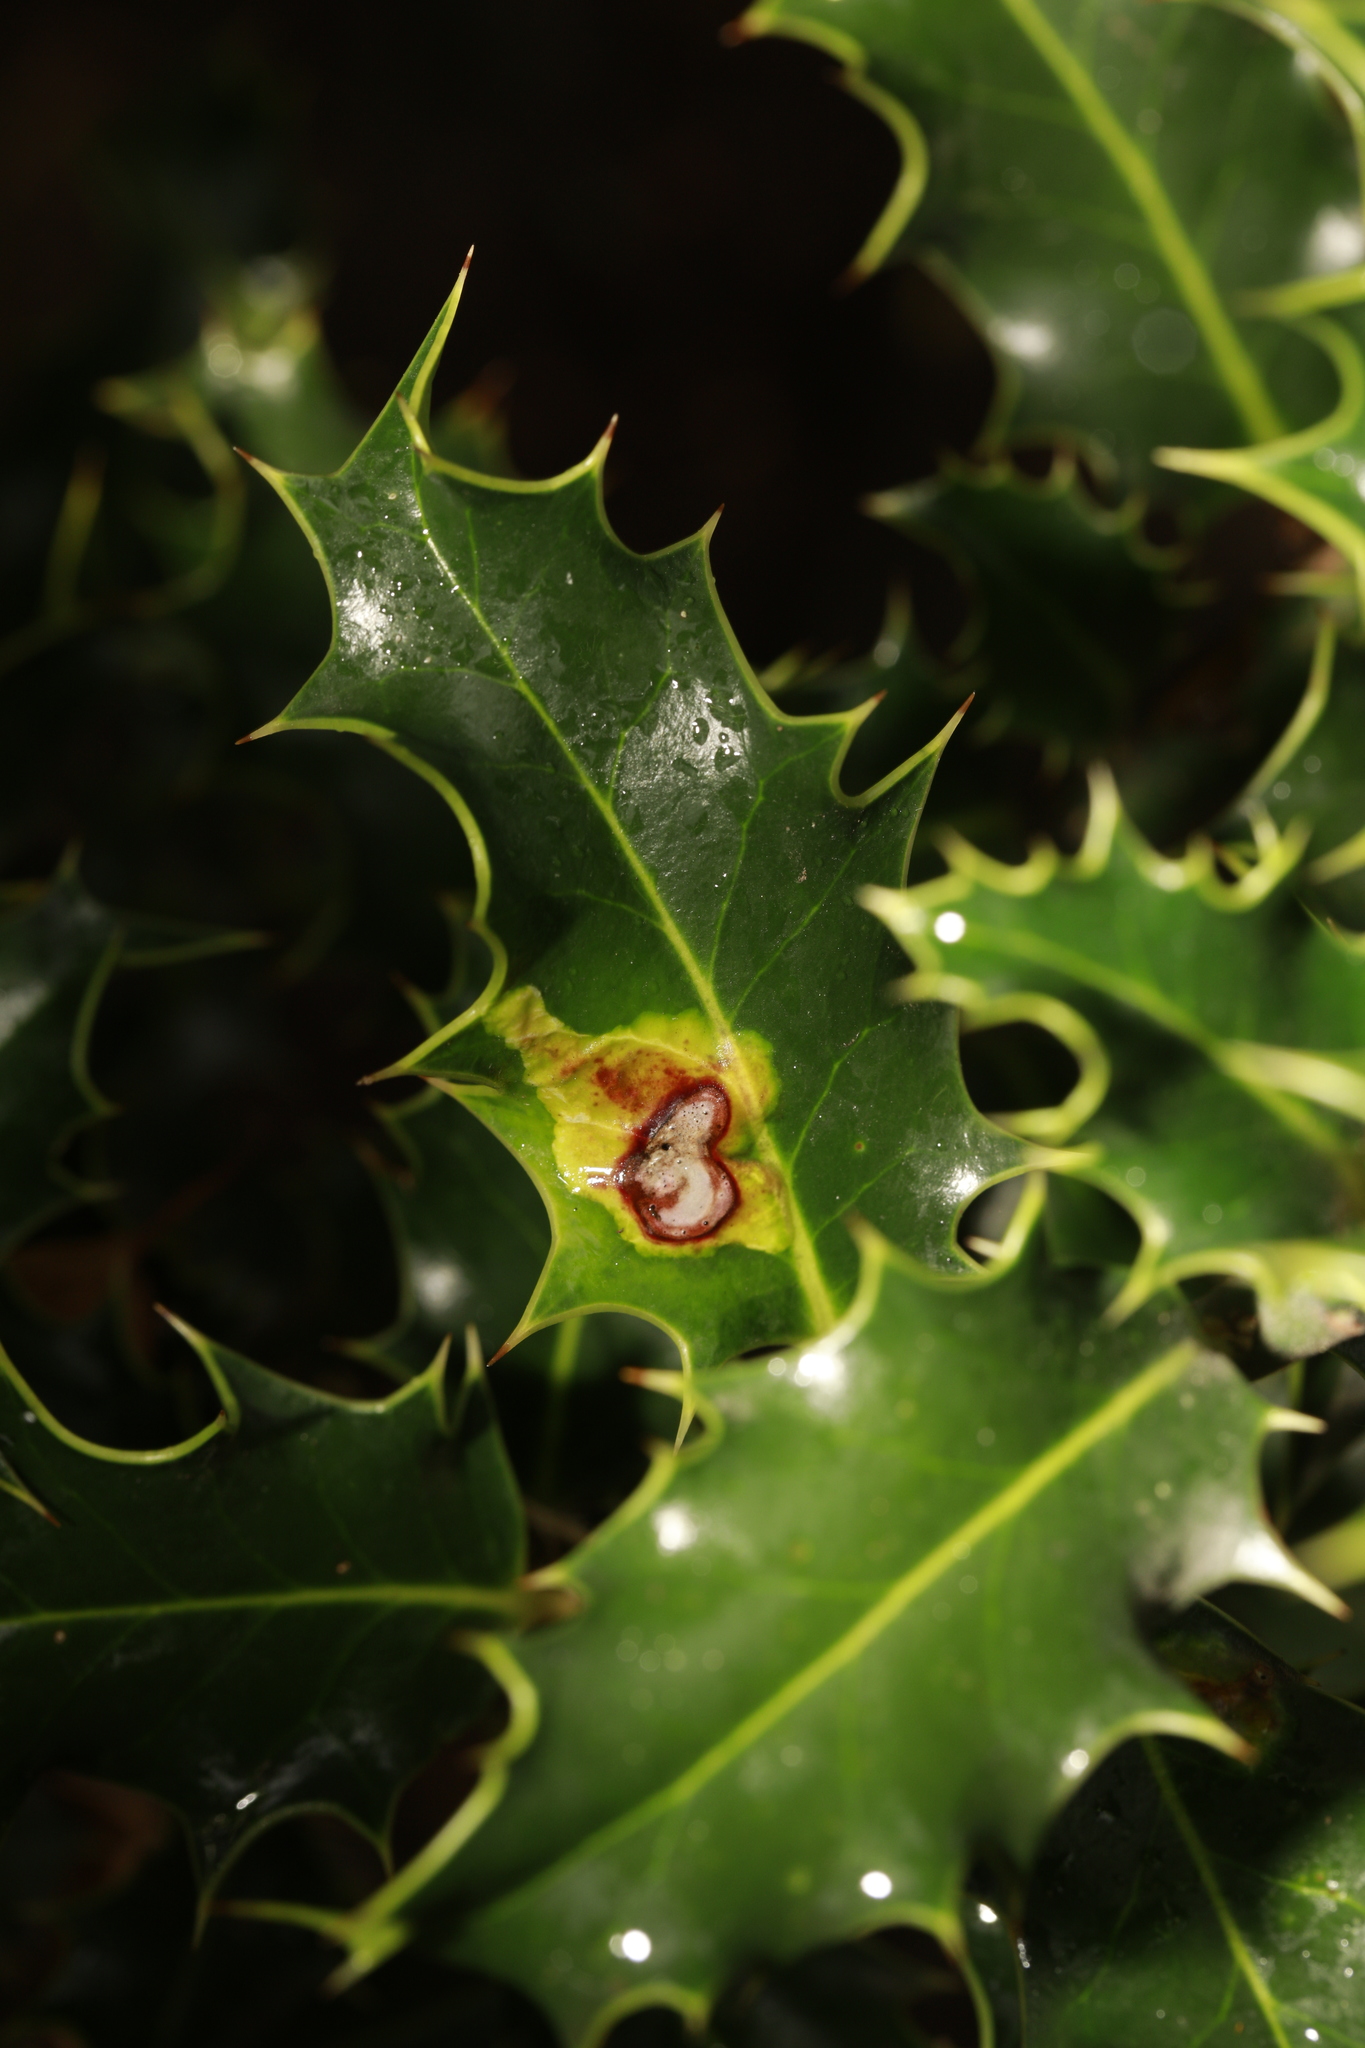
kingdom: Animalia
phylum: Arthropoda
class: Insecta
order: Diptera
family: Agromyzidae
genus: Phytomyza
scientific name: Phytomyza ilicis
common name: Holly leafminer
